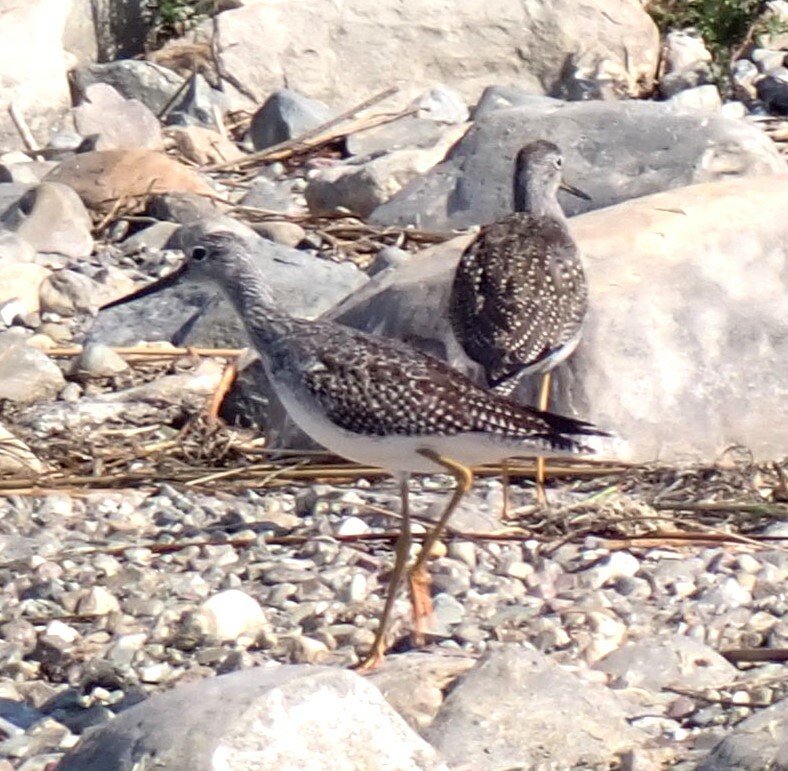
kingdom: Animalia
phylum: Chordata
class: Aves
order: Charadriiformes
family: Scolopacidae
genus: Tringa
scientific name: Tringa melanoleuca
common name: Greater yellowlegs
